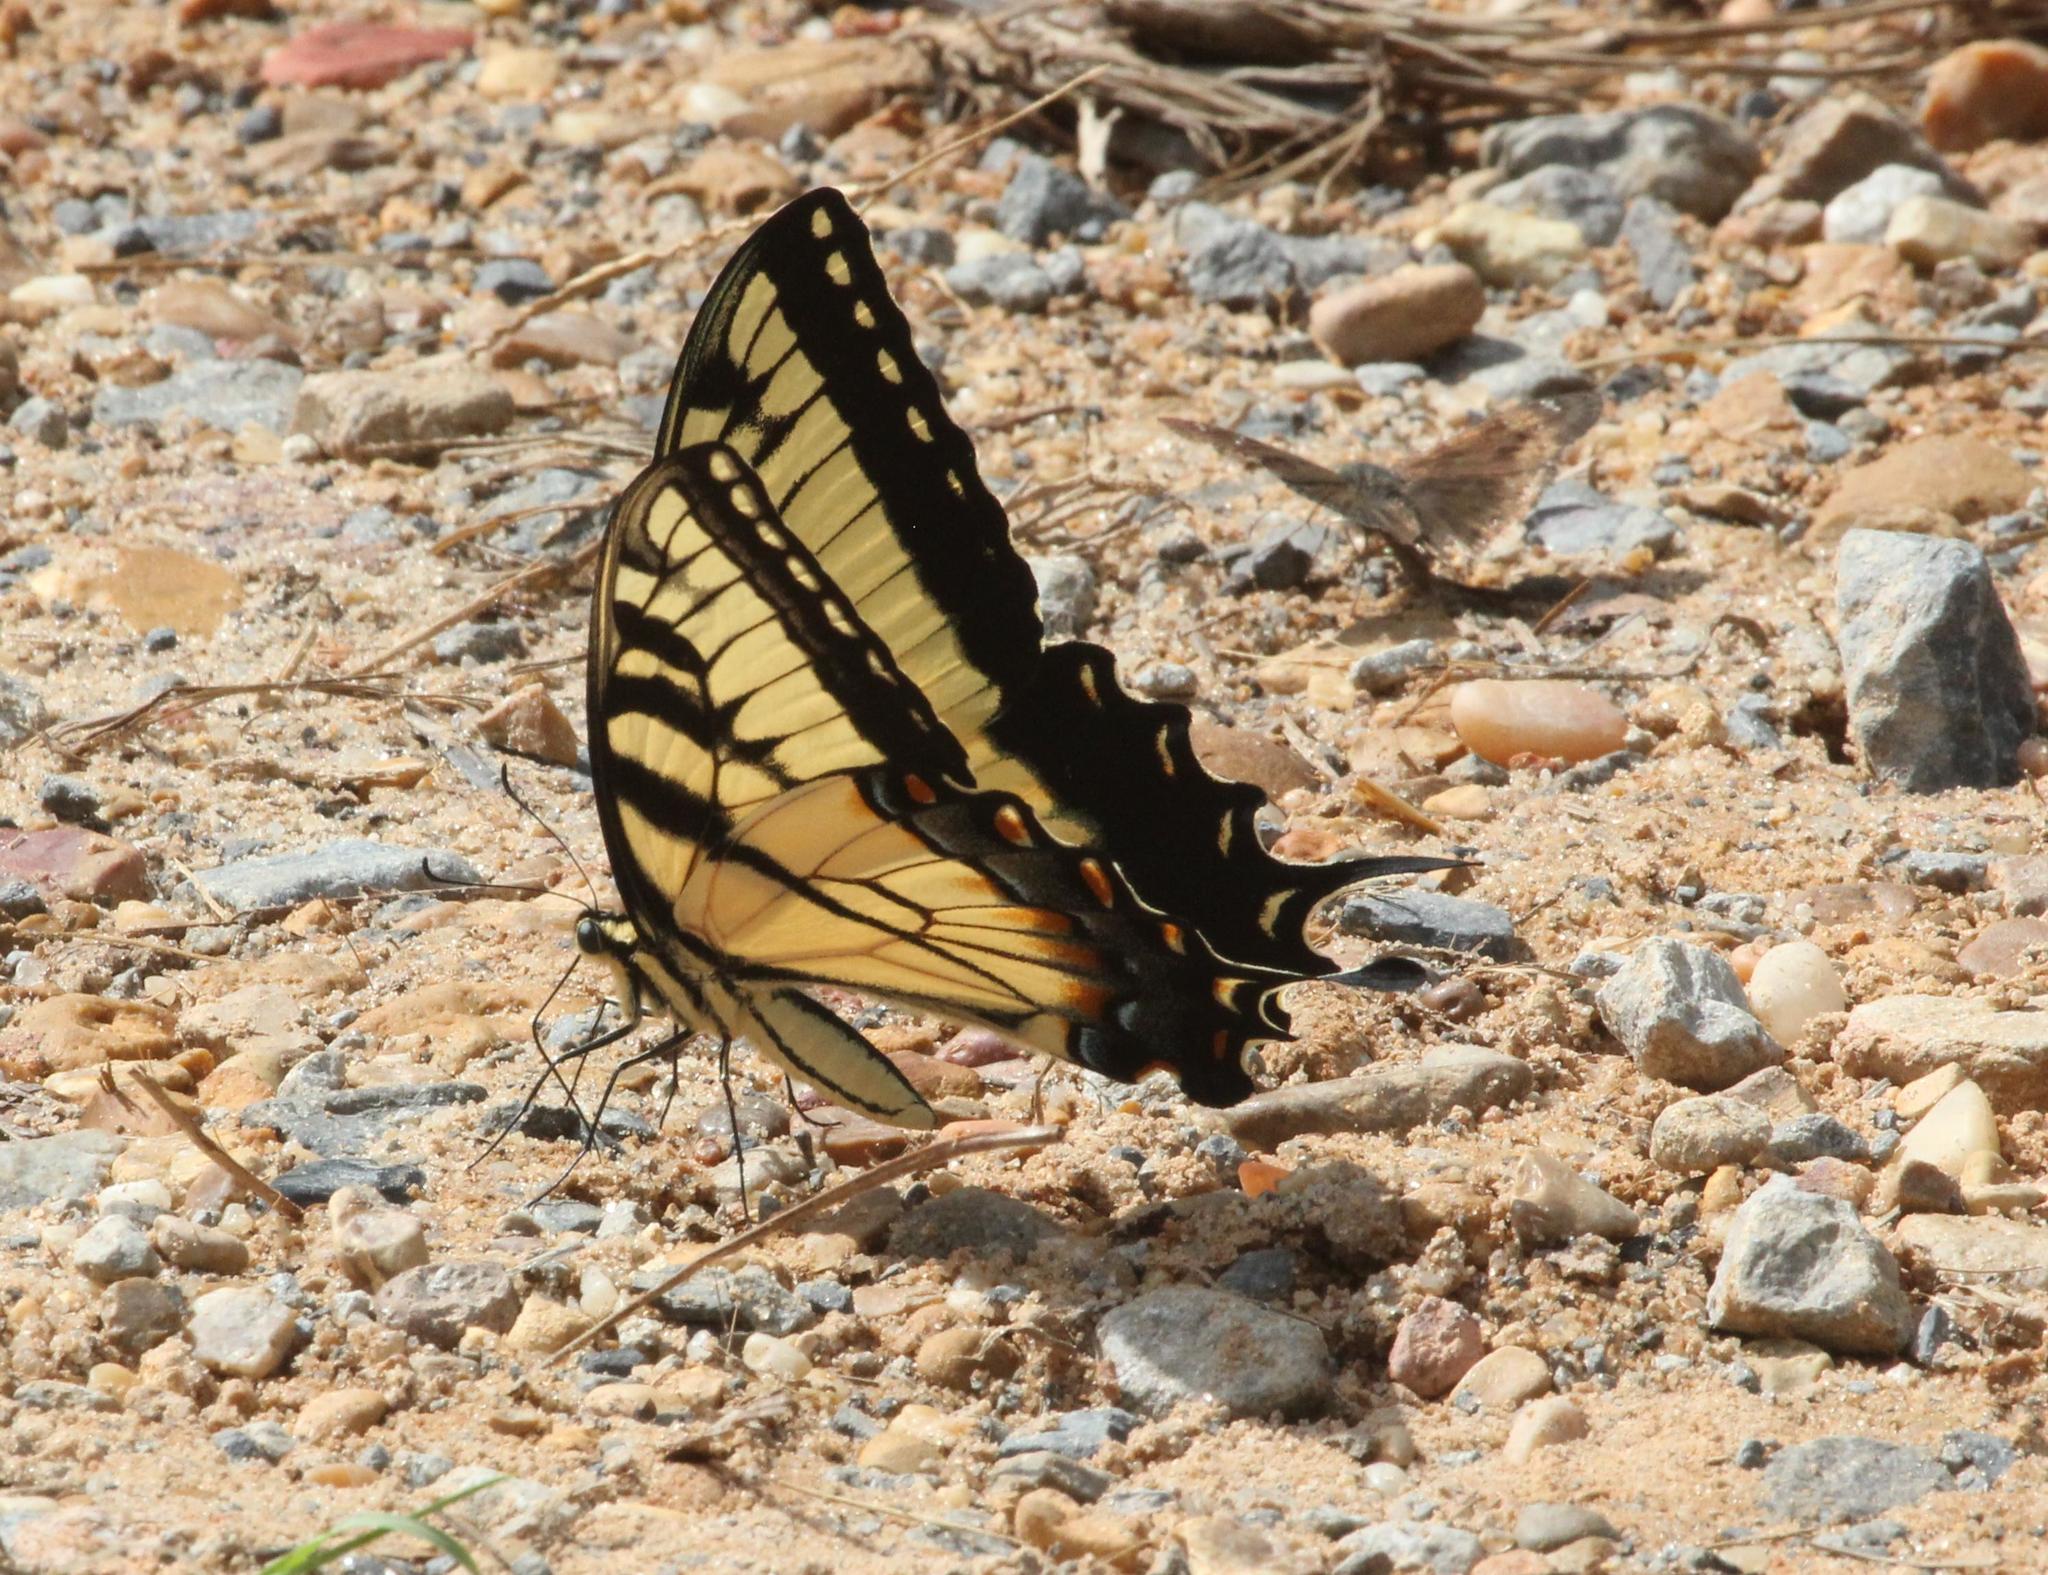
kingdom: Animalia
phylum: Arthropoda
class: Insecta
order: Lepidoptera
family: Papilionidae
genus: Papilio
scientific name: Papilio glaucus
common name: Tiger swallowtail
